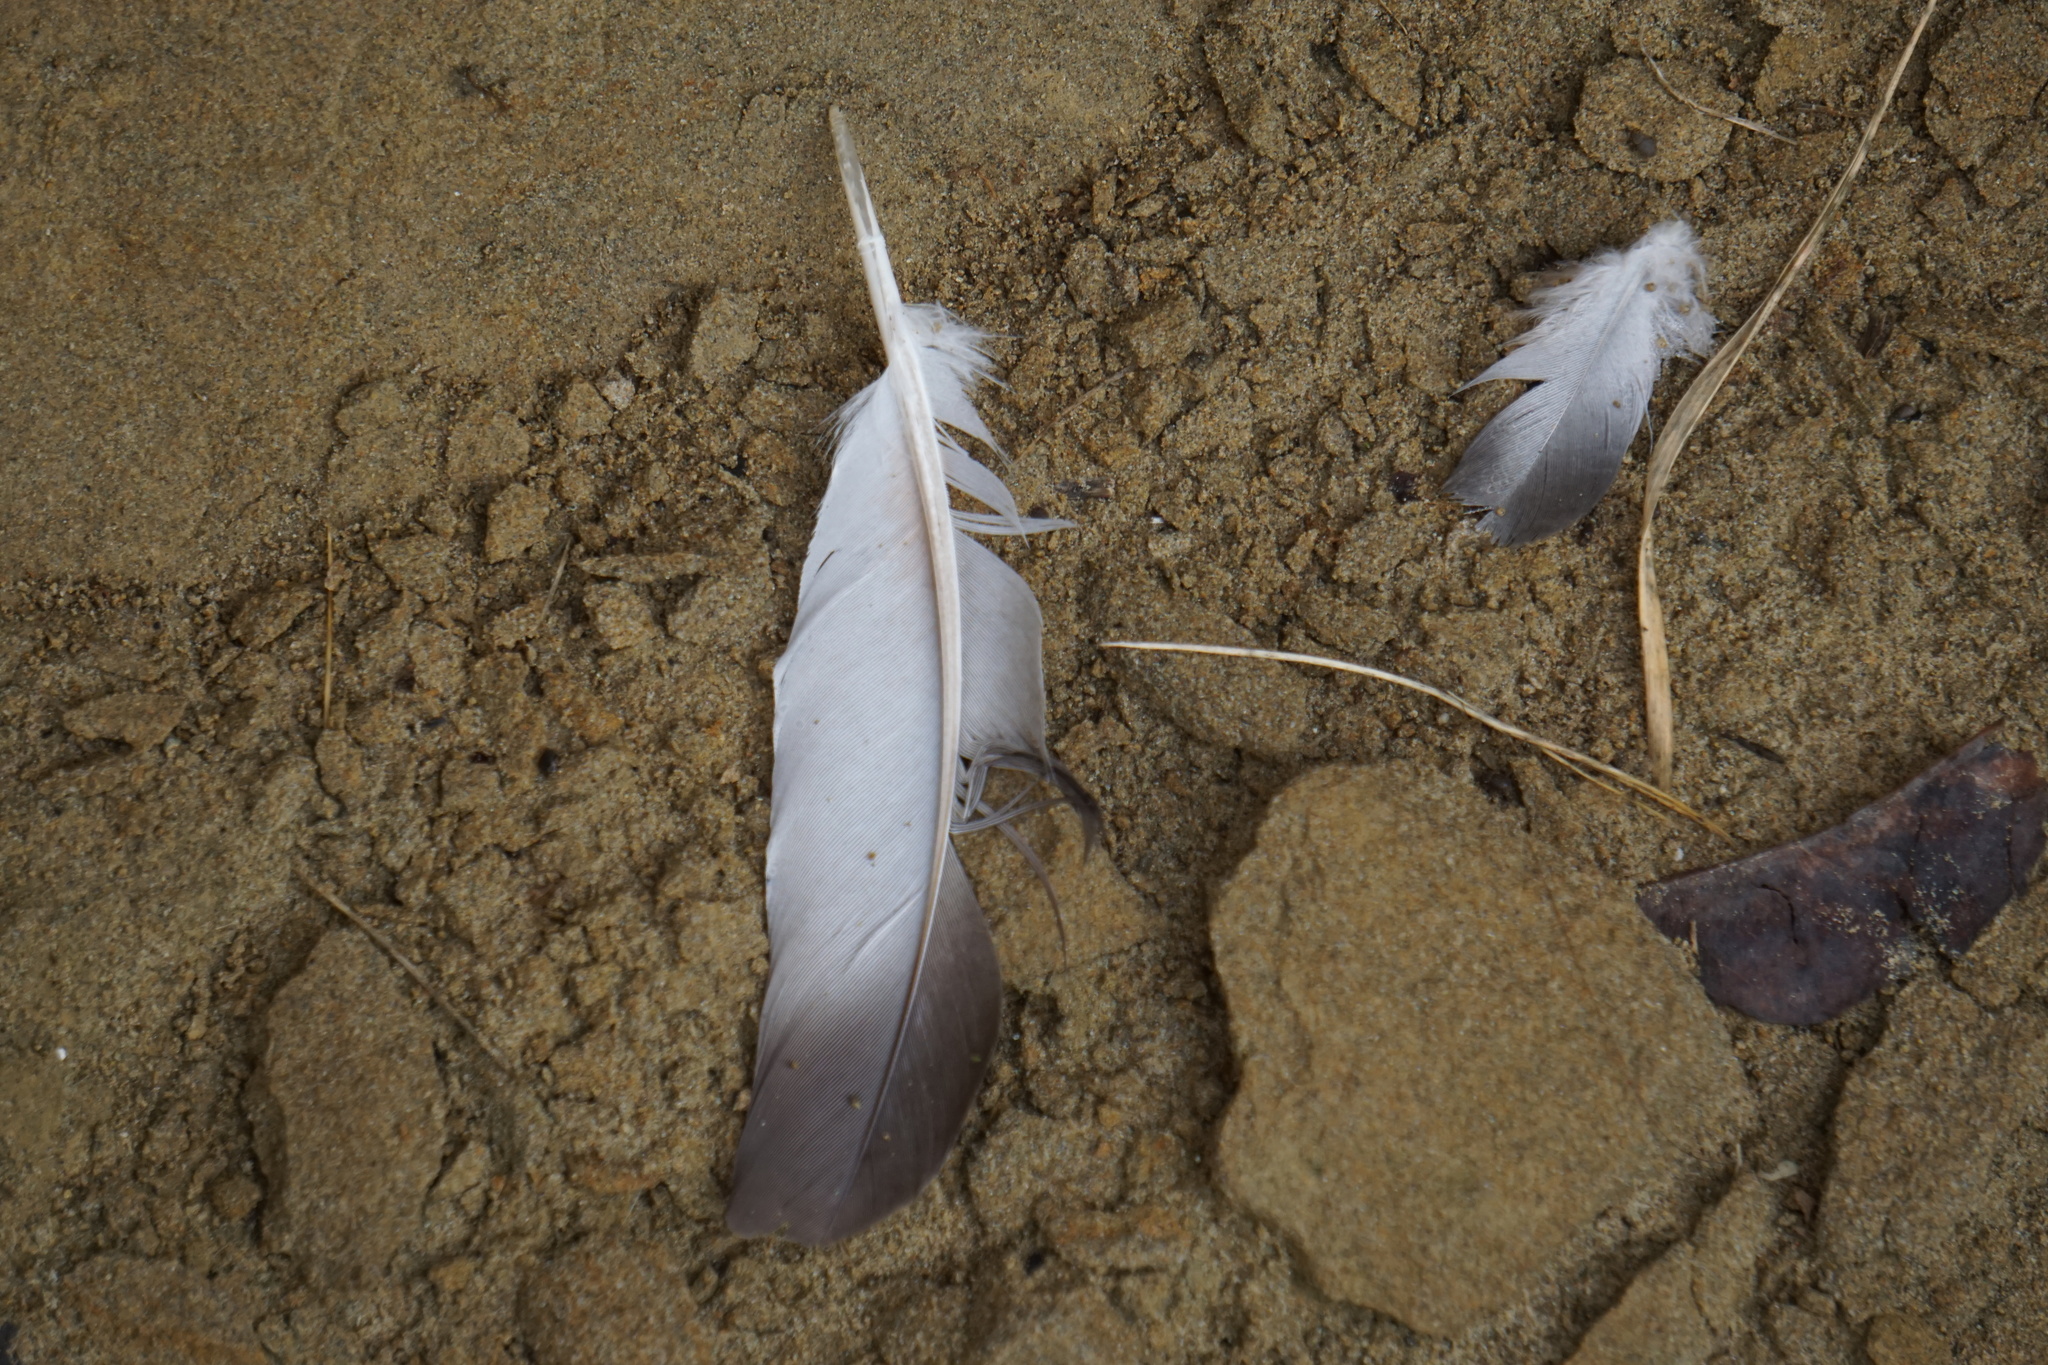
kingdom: Animalia
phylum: Chordata
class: Aves
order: Columbiformes
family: Columbidae
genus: Columba
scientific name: Columba livia
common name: Rock pigeon
